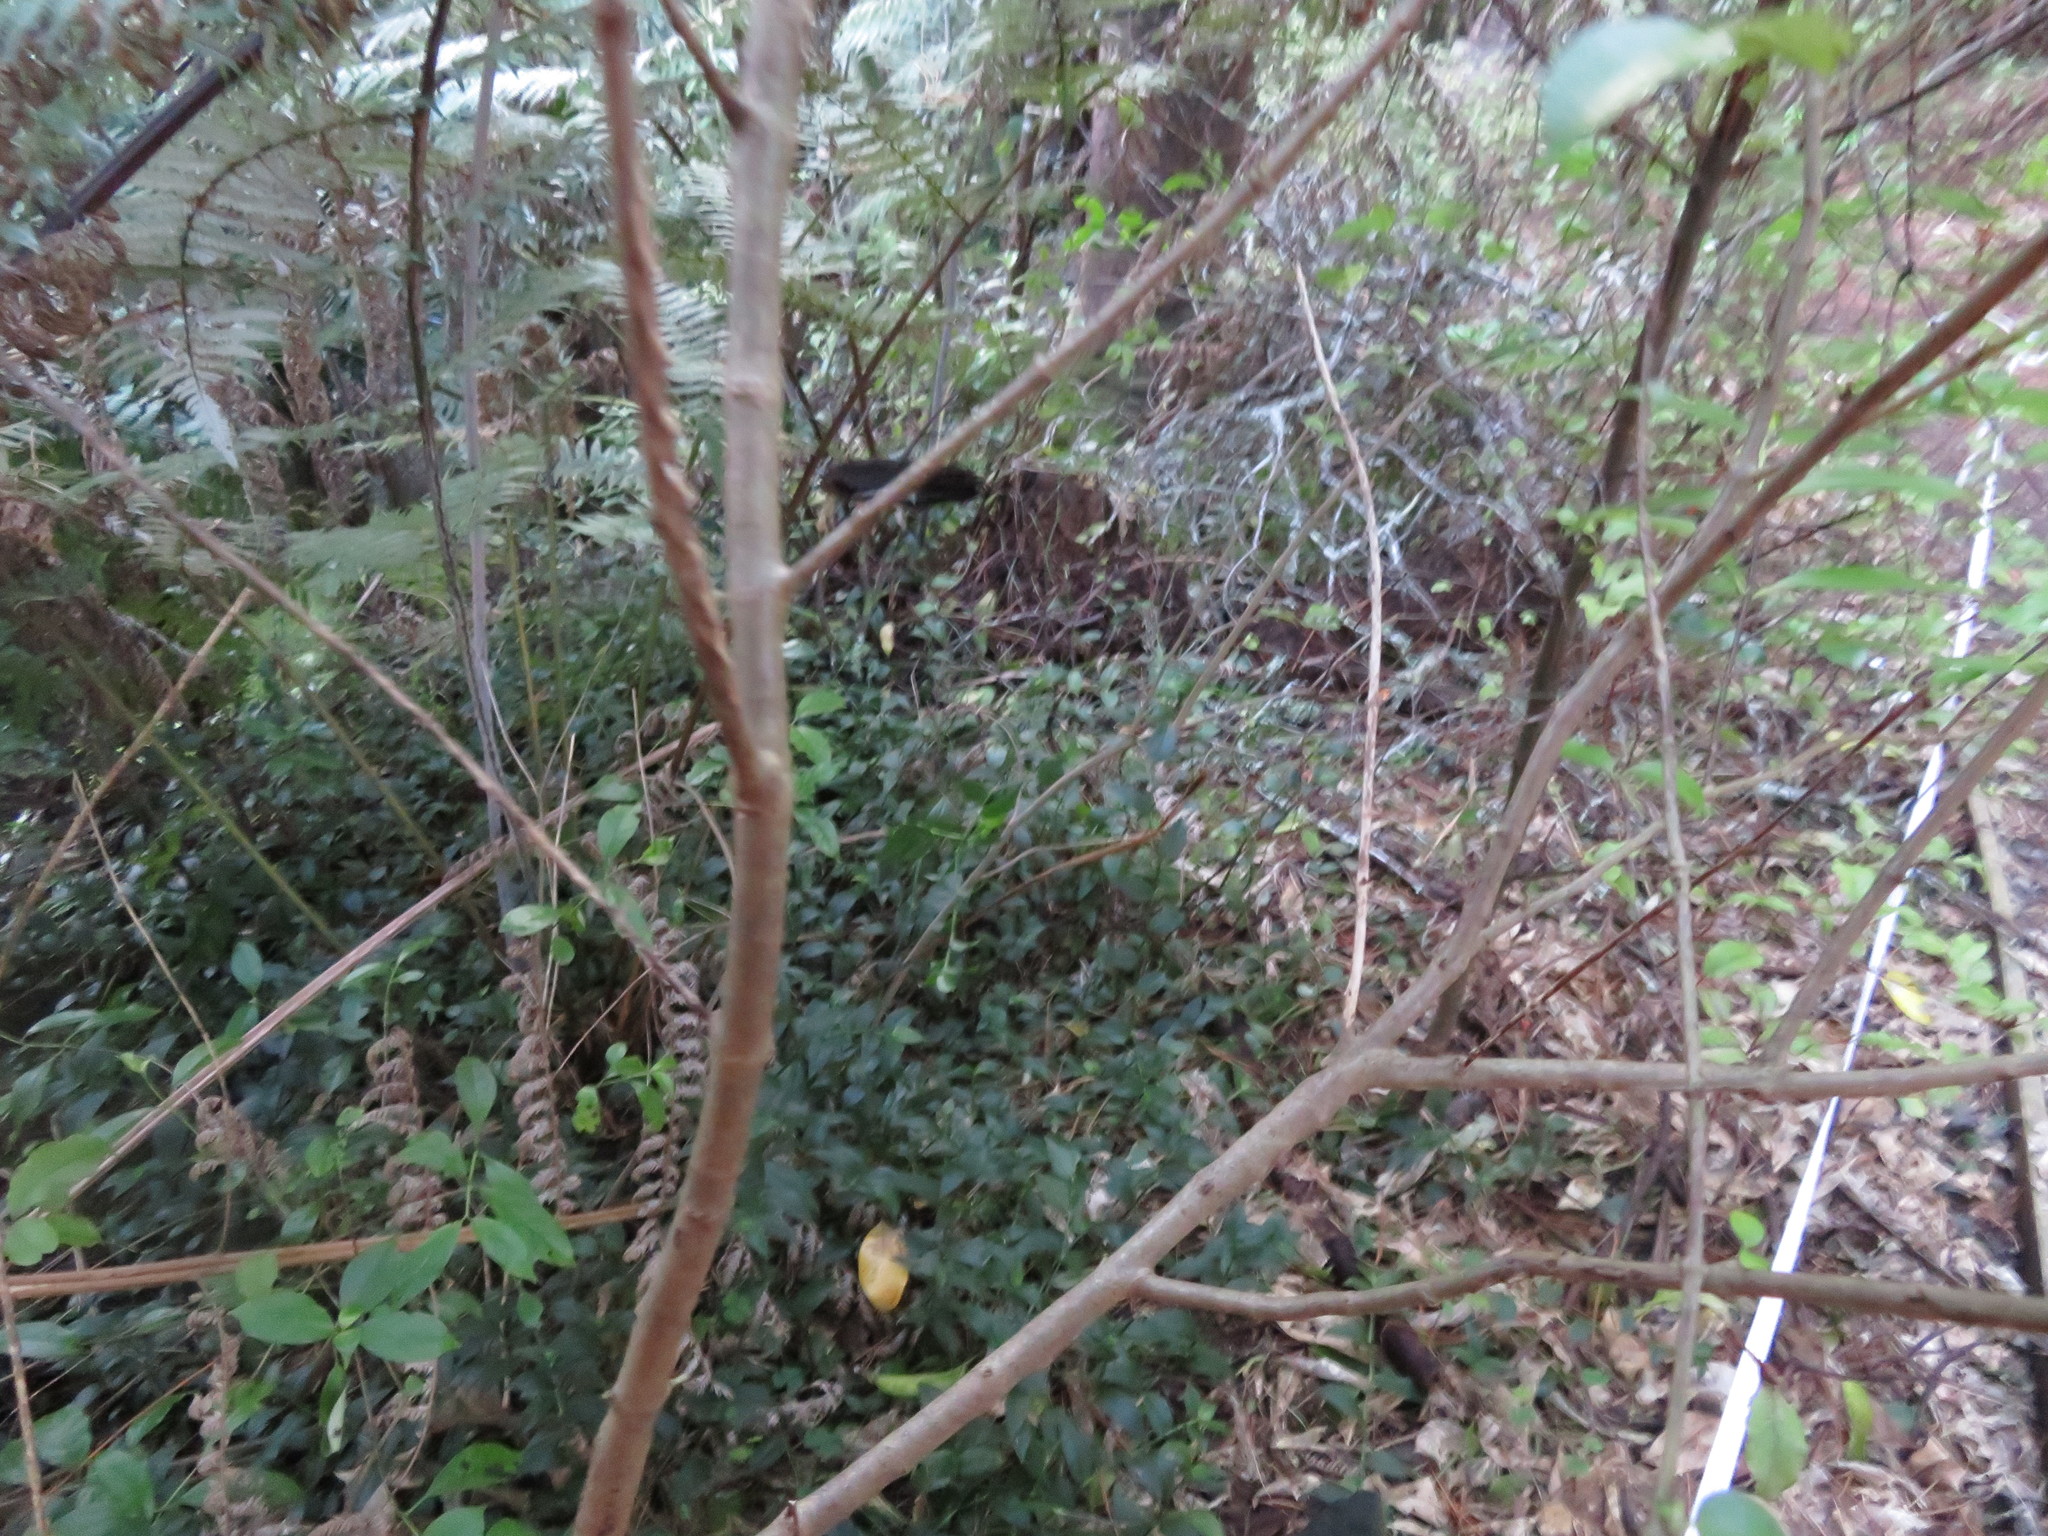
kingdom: Plantae
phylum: Tracheophyta
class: Liliopsida
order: Commelinales
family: Commelinaceae
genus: Tradescantia
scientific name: Tradescantia fluminensis
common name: Wandering-jew
